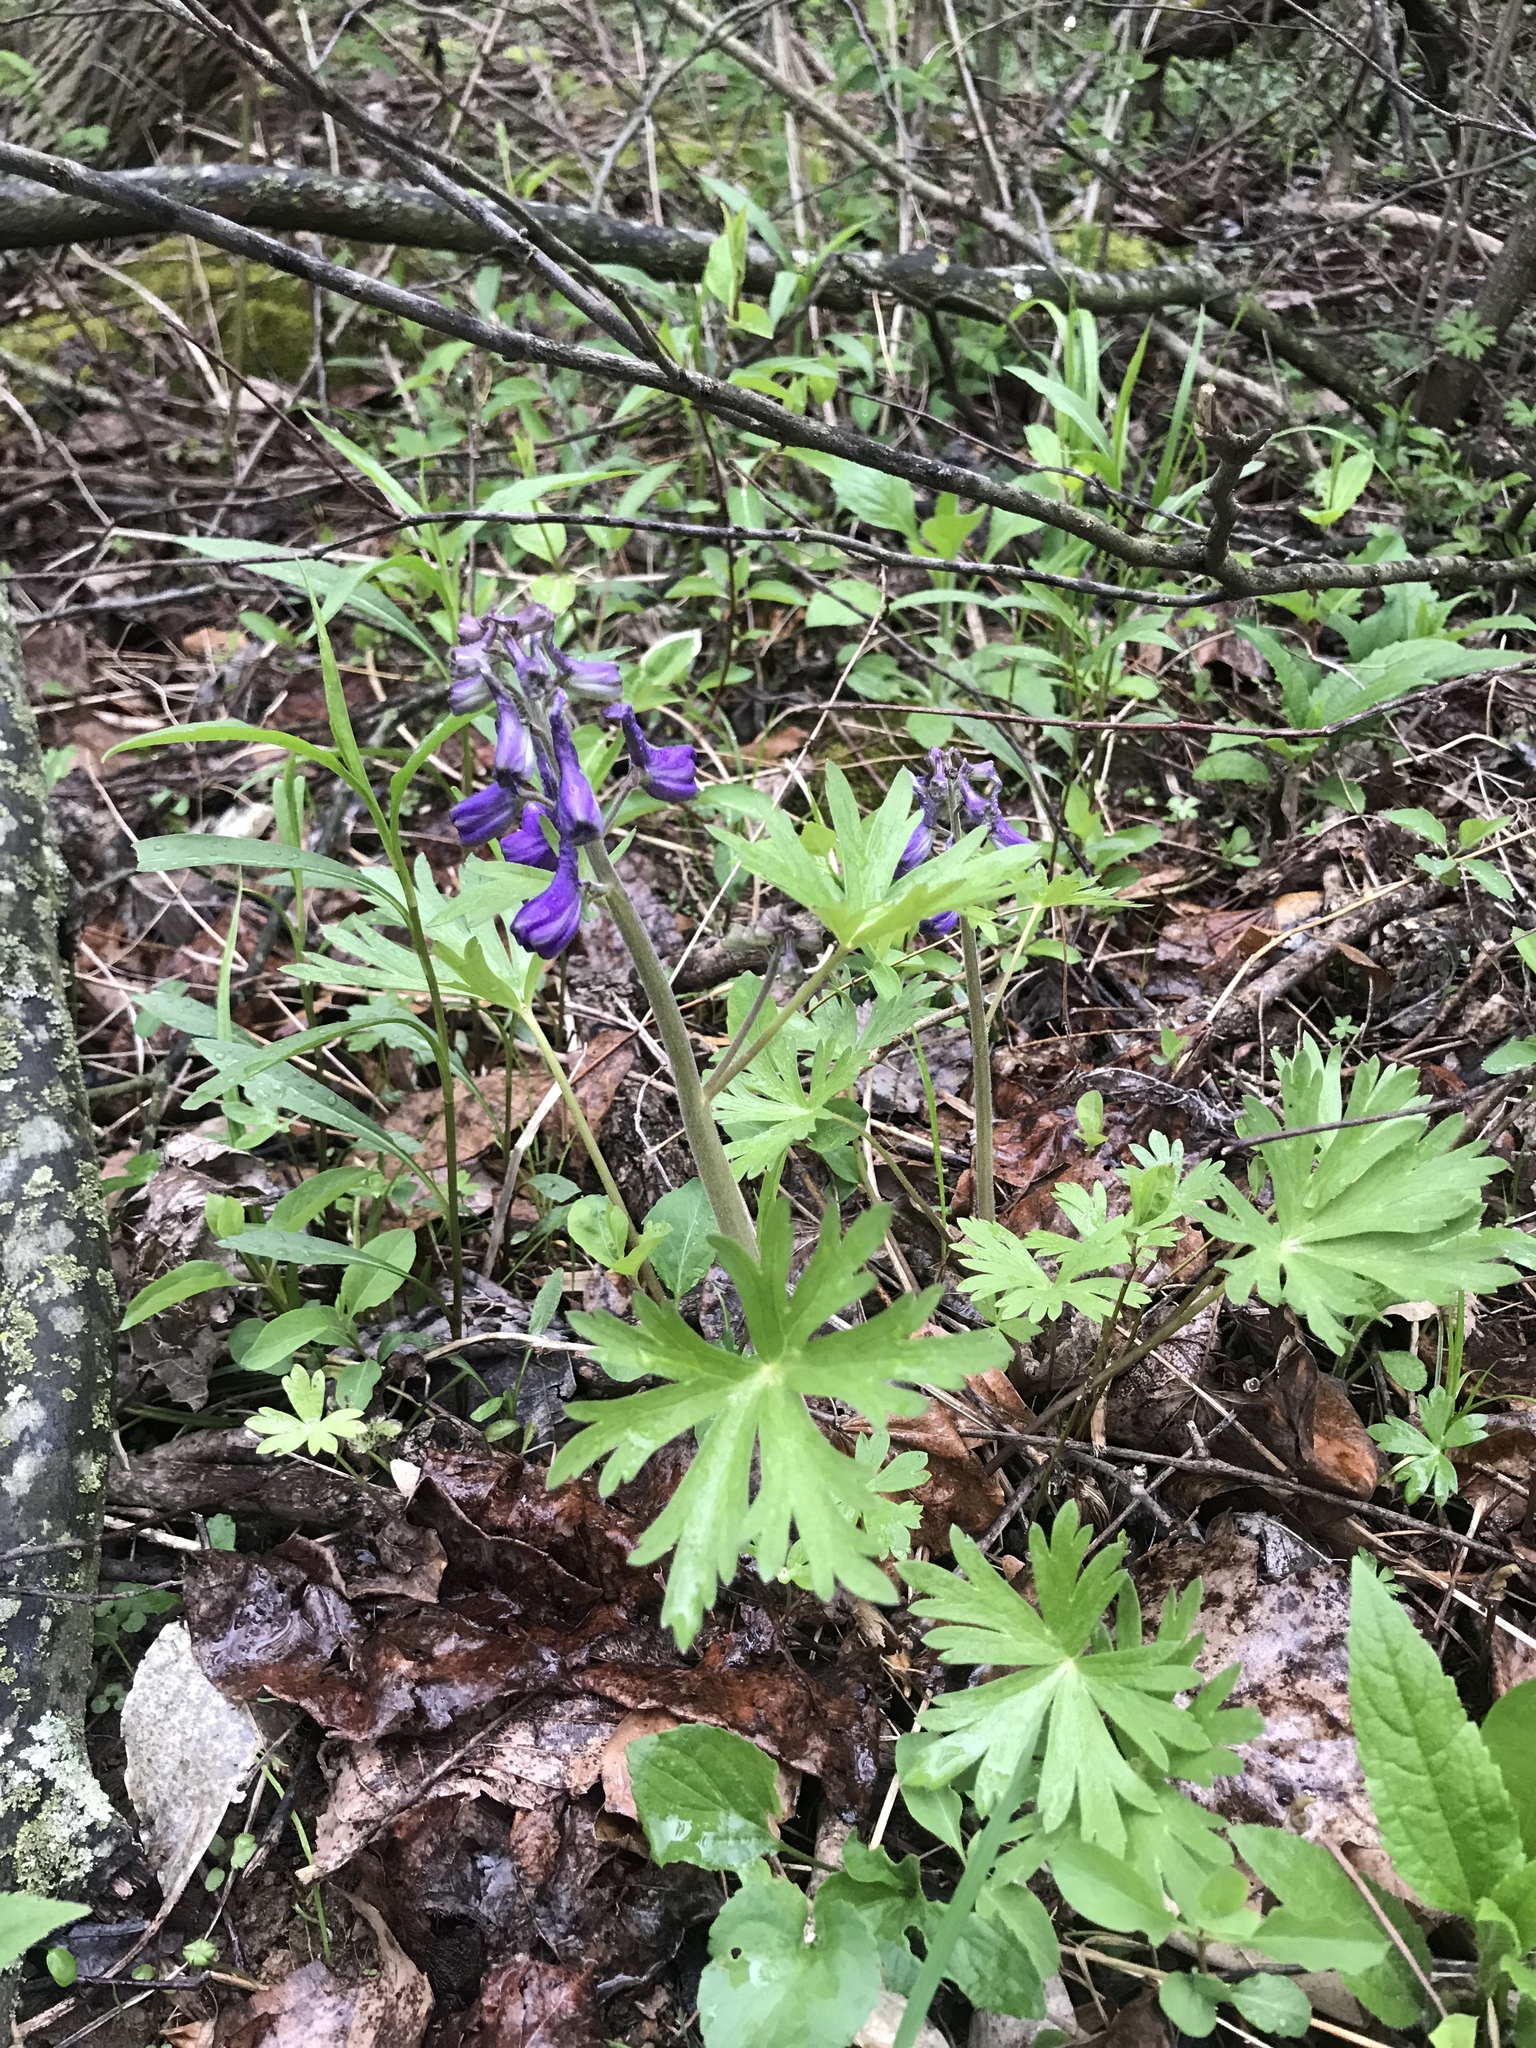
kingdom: Plantae
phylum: Tracheophyta
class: Magnoliopsida
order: Ranunculales
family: Ranunculaceae
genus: Delphinium
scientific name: Delphinium tricorne
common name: Dwarf larkspur
